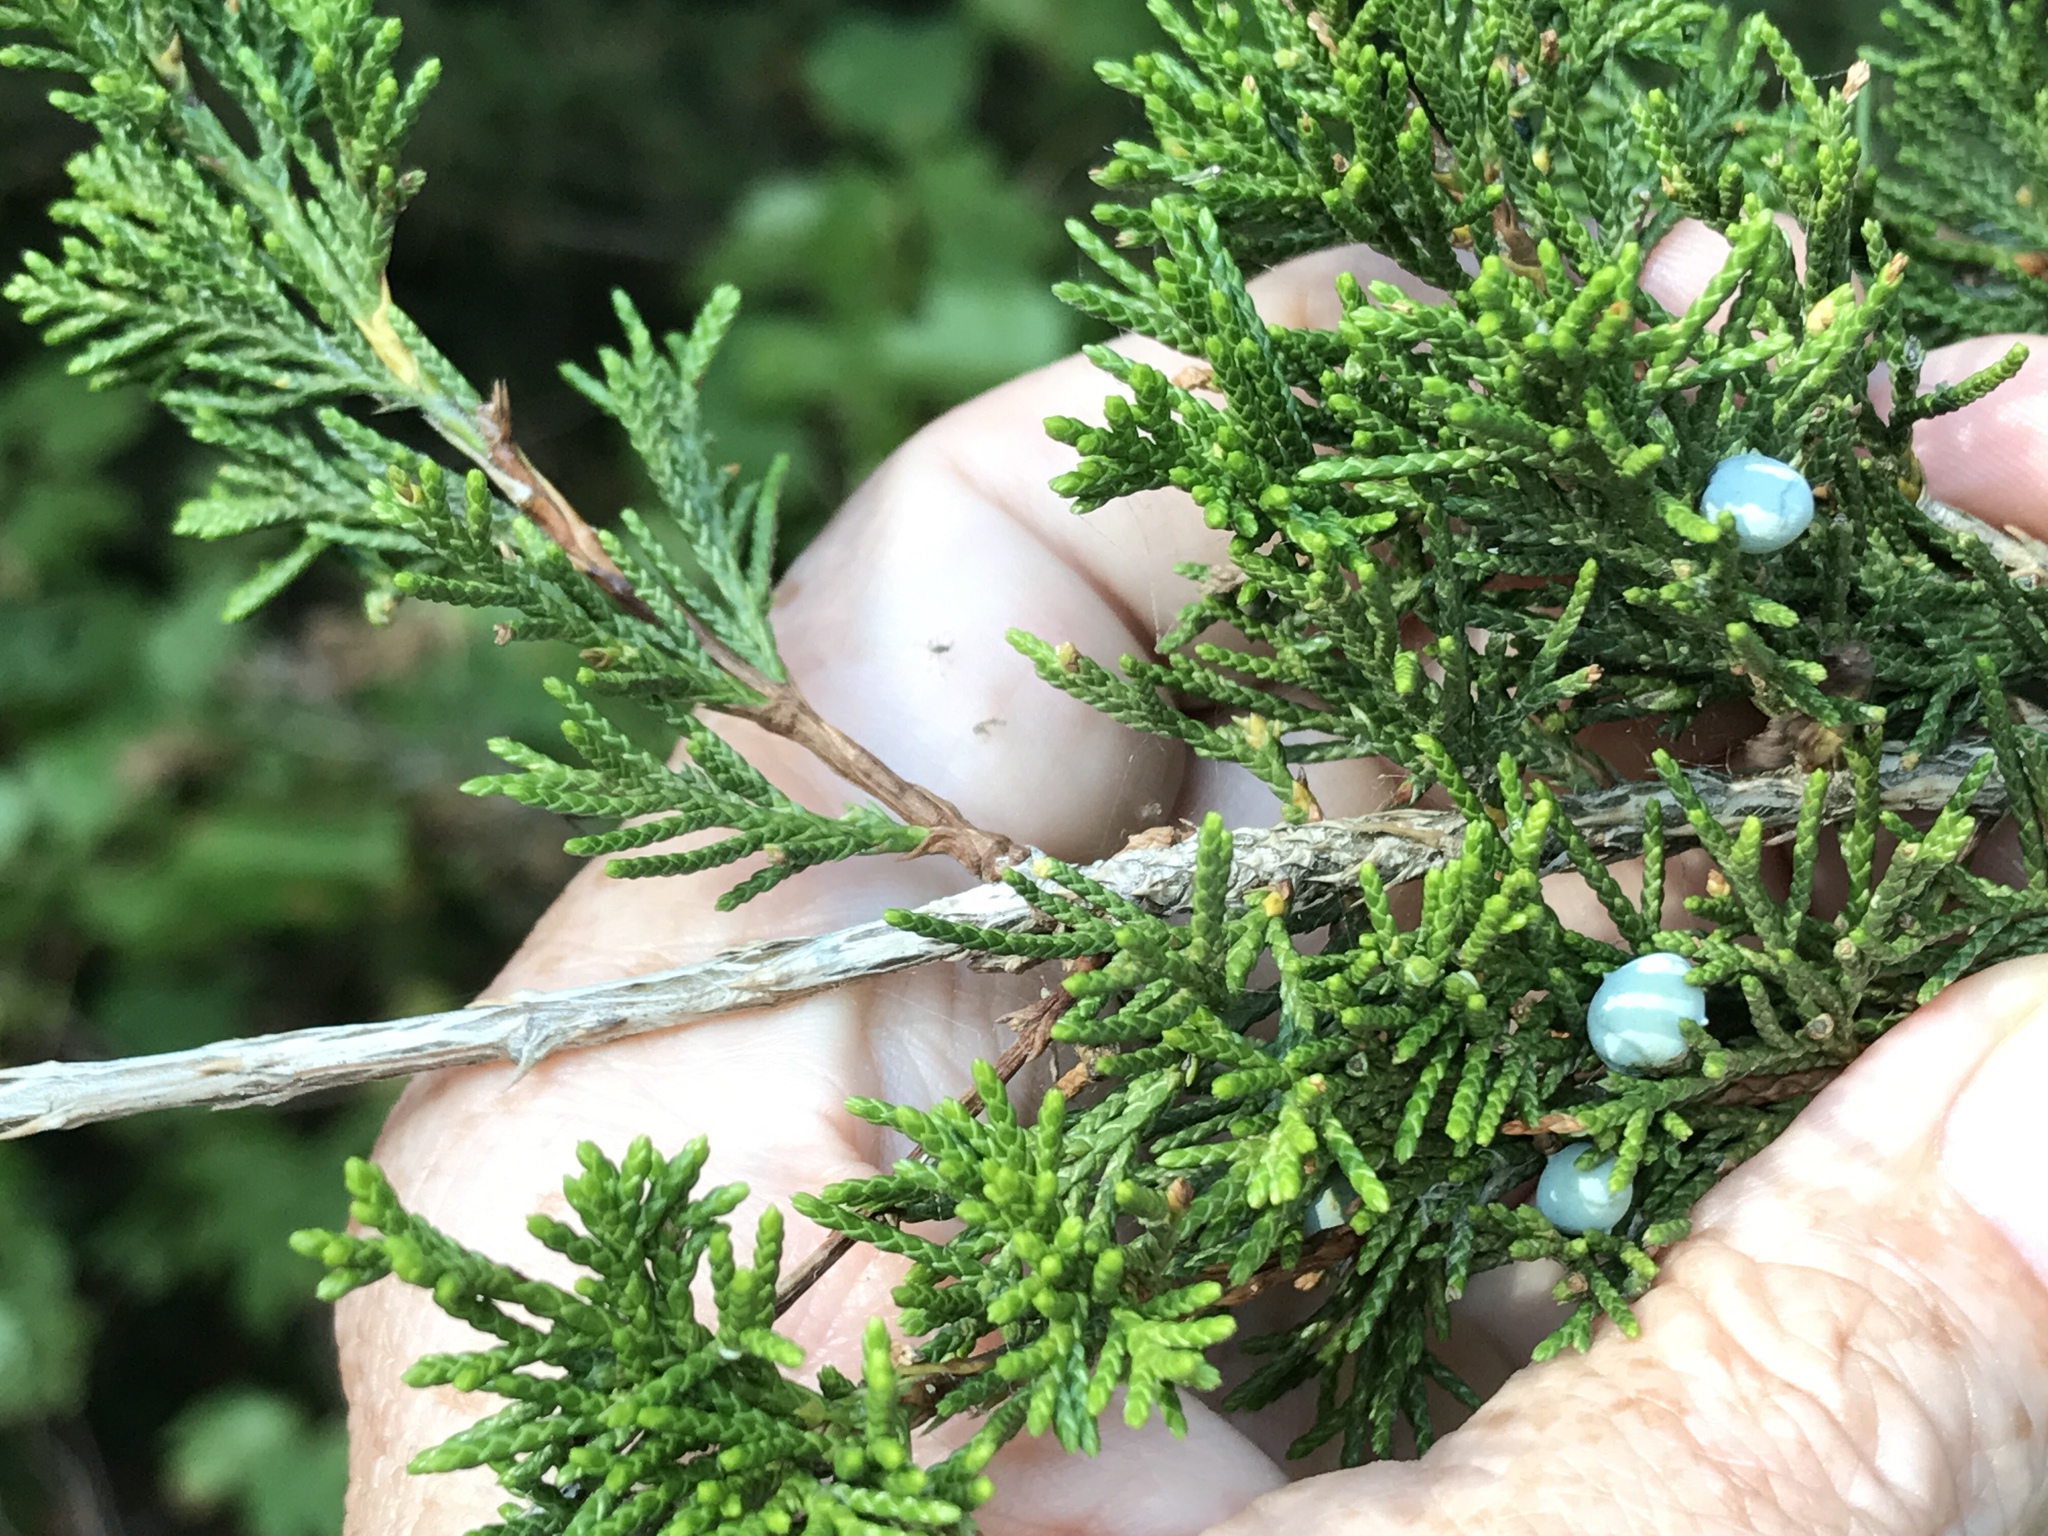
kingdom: Plantae
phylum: Tracheophyta
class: Pinopsida
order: Pinales
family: Cupressaceae
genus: Juniperus
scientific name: Juniperus virginiana
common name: Red juniper
